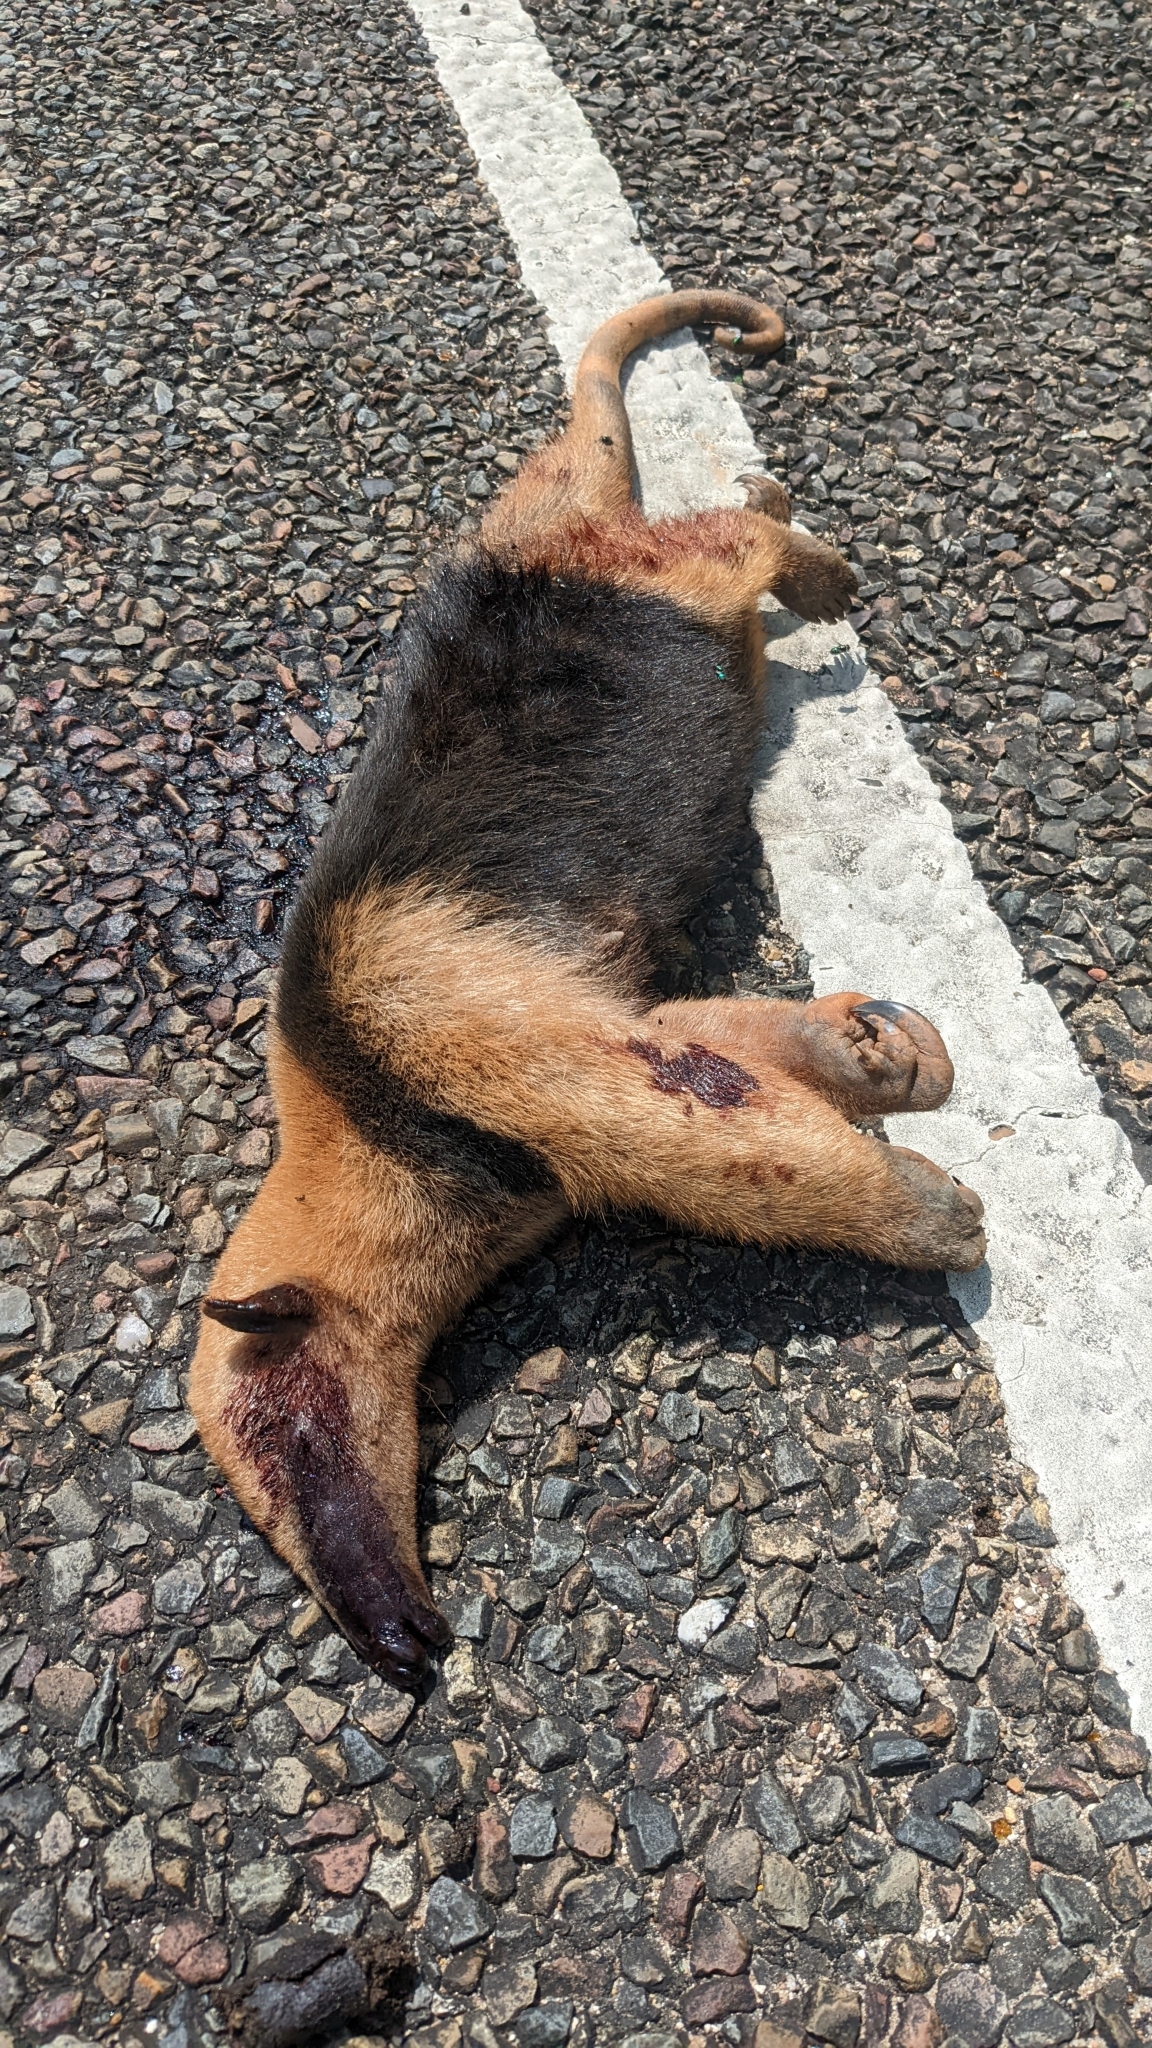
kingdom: Animalia
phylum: Chordata
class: Mammalia
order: Pilosa
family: Myrmecophagidae
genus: Tamandua
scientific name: Tamandua mexicana
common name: Northern tamandua
